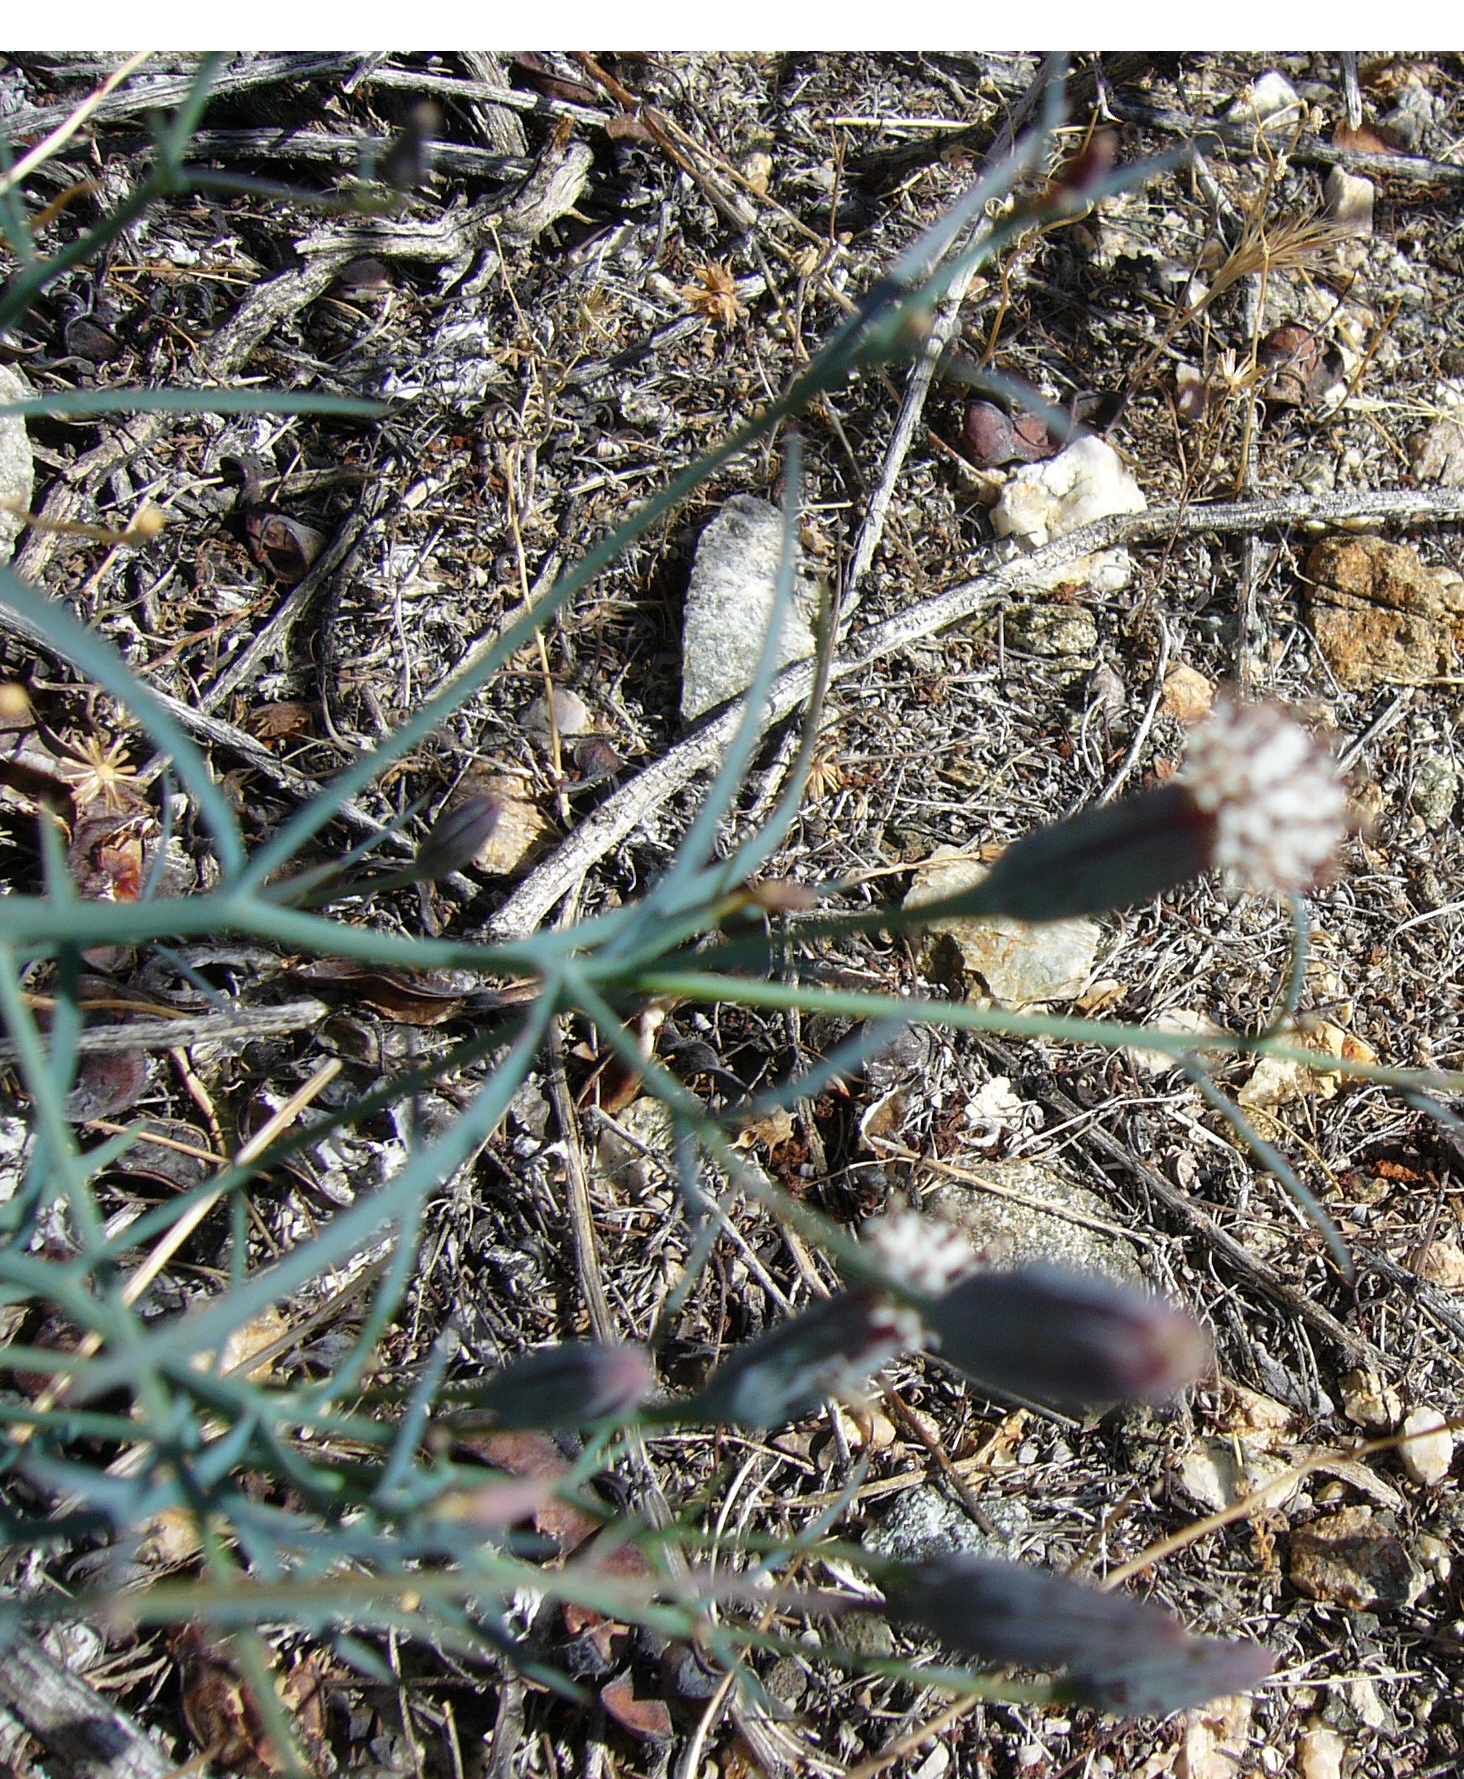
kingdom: Plantae
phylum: Tracheophyta
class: Magnoliopsida
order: Asterales
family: Asteraceae
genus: Porophyllum
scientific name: Porophyllum gracile
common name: Odora
